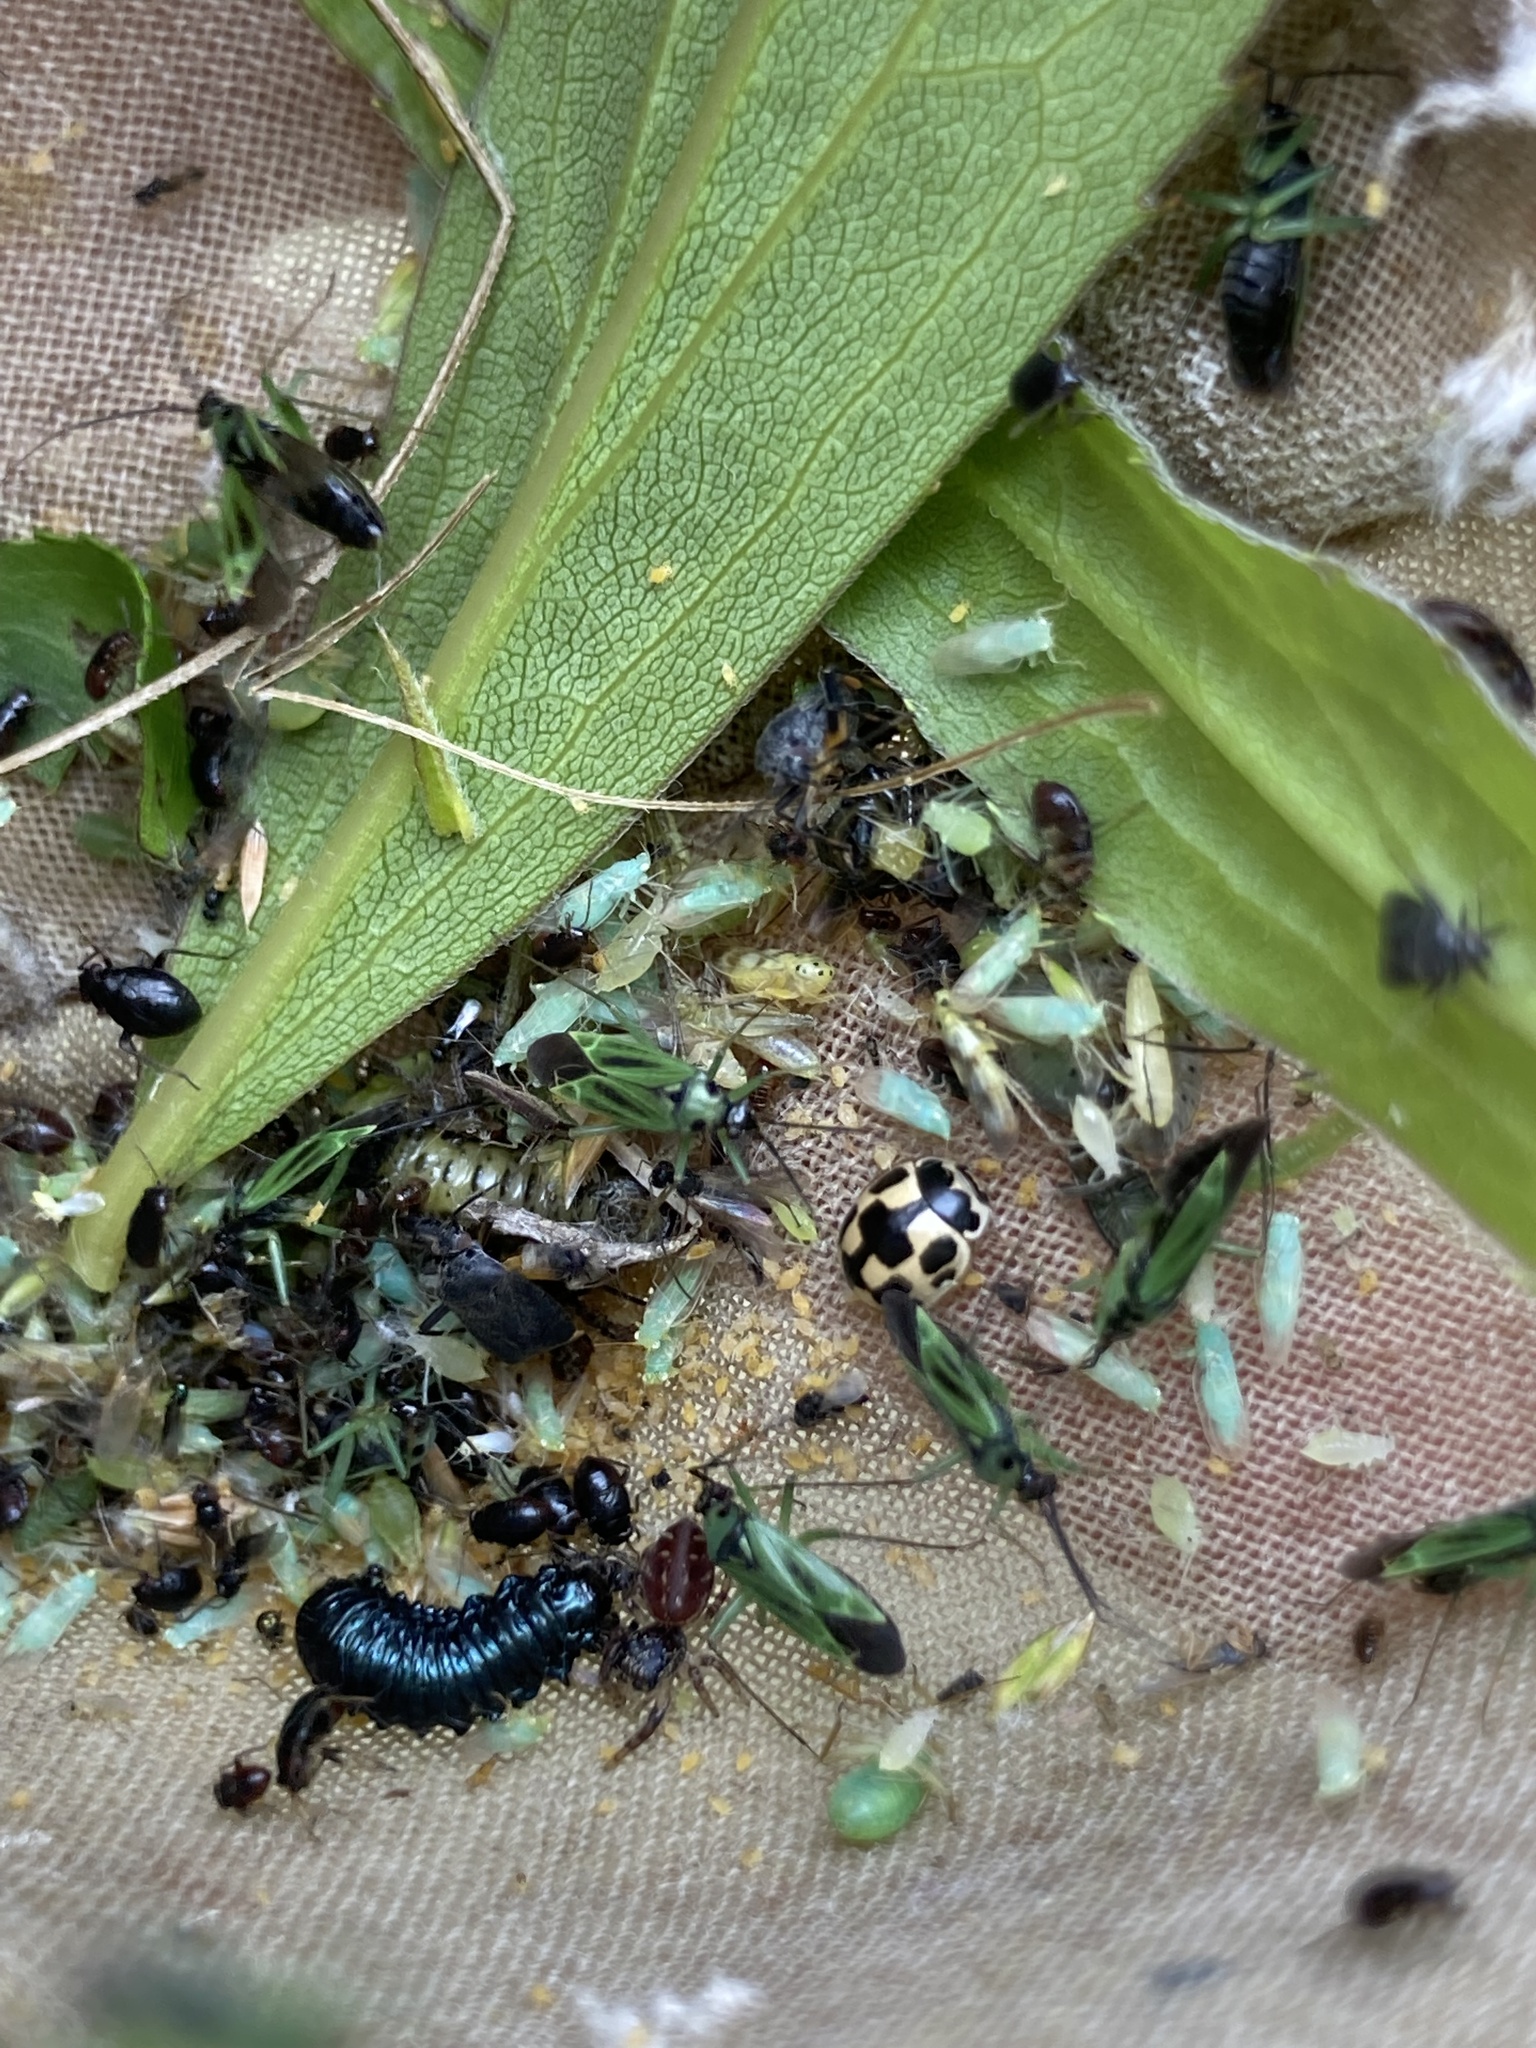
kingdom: Animalia
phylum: Arthropoda
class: Insecta
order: Coleoptera
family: Coccinellidae
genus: Propylaea
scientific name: Propylaea quatuordecimpunctata
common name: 14-spotted ladybird beetle
